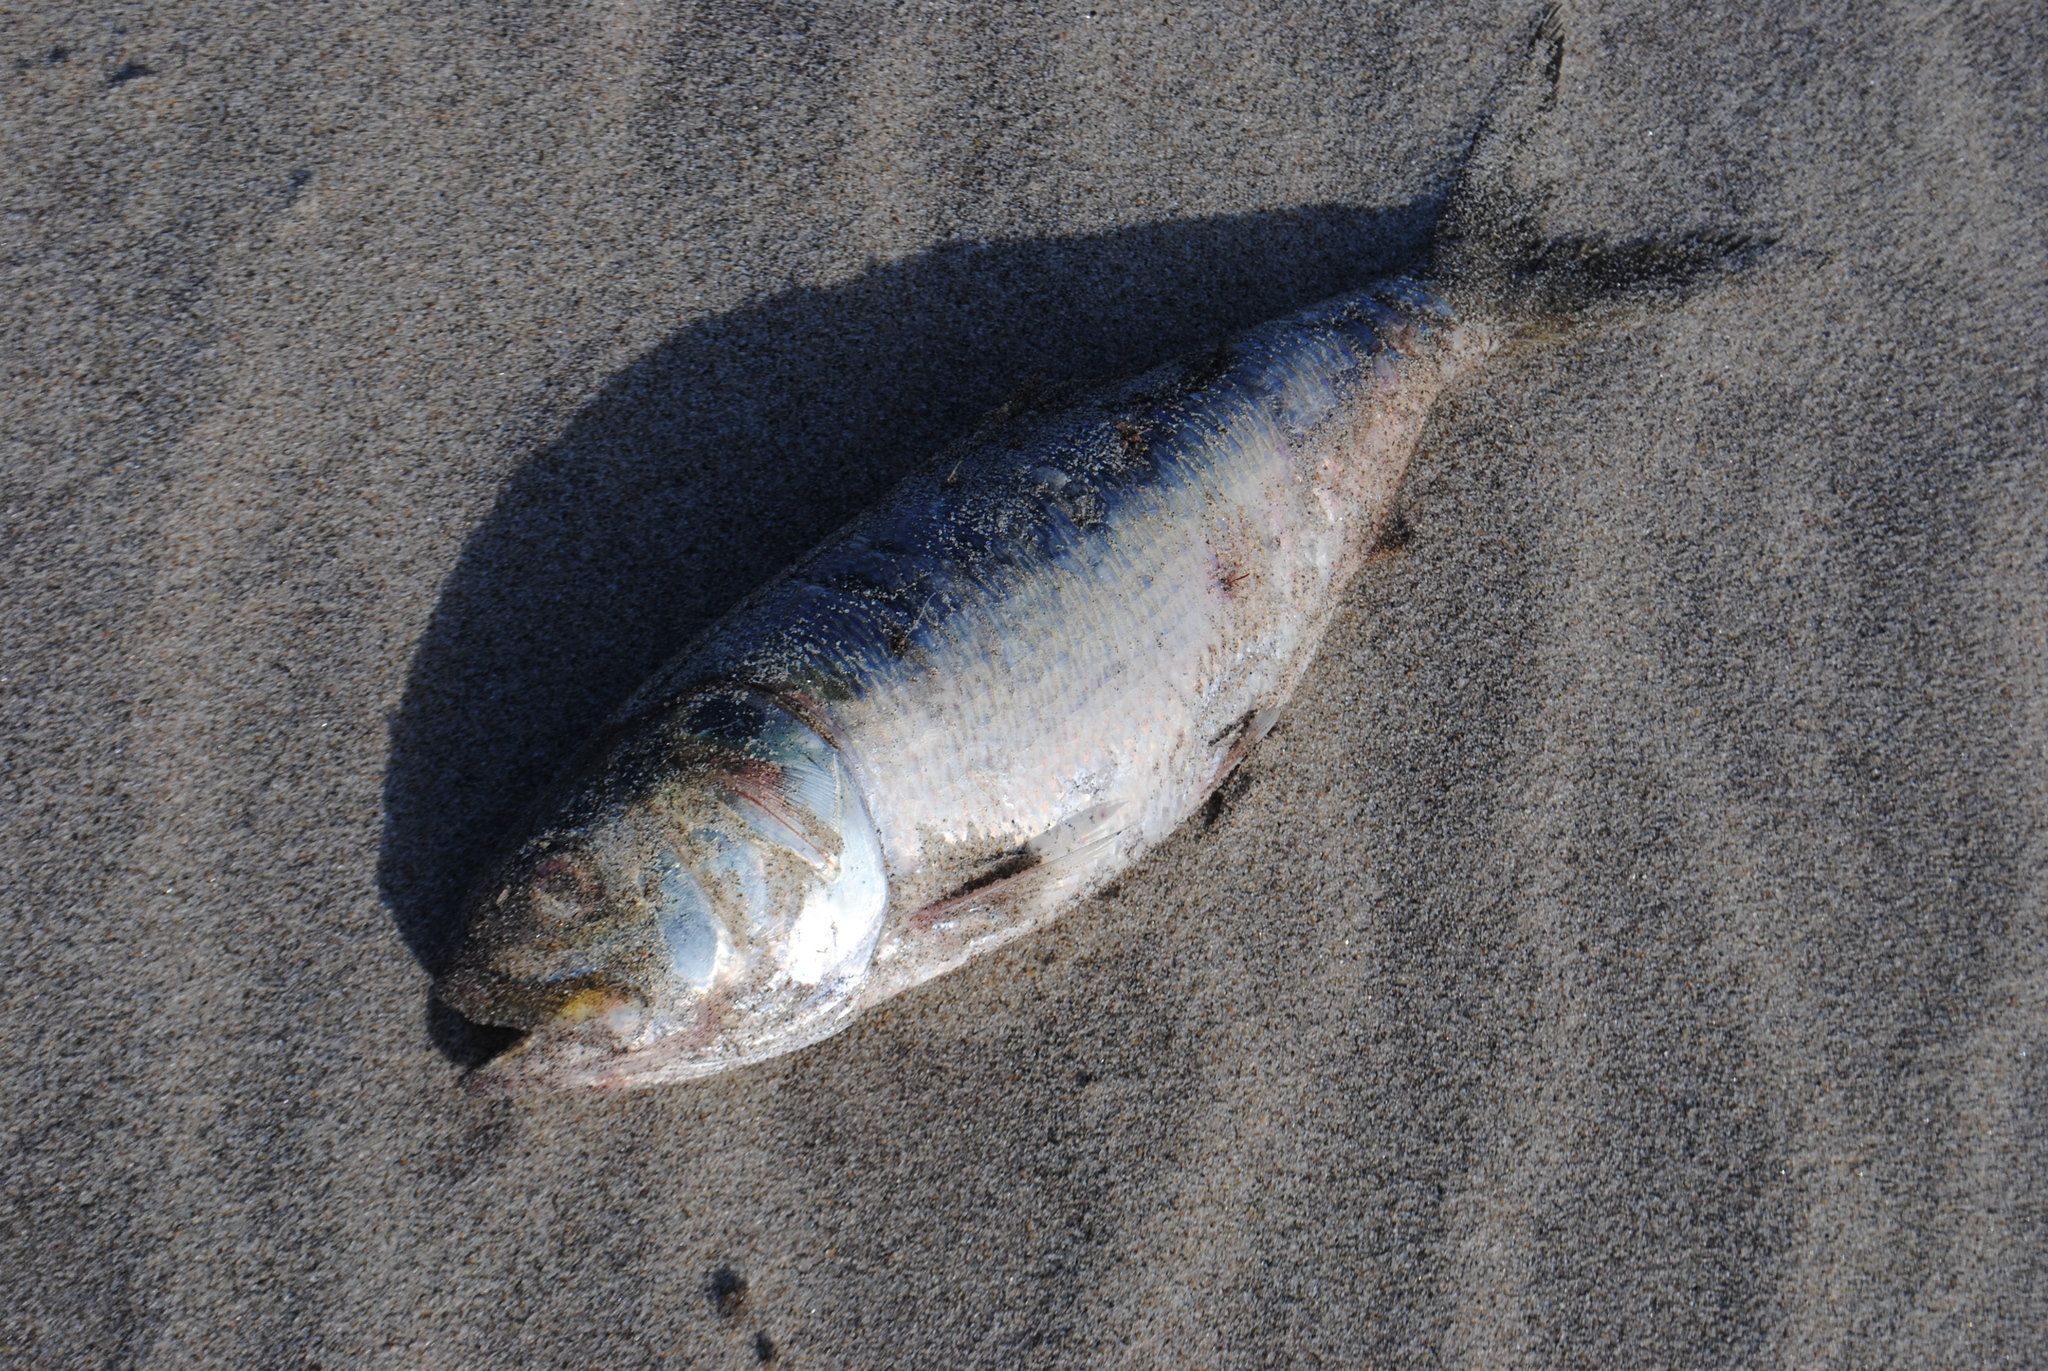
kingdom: Animalia
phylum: Chordata
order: Clupeiformes
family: Clupeidae
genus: Brevoortia
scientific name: Brevoortia tyrannus
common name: Atlantic menhaden
